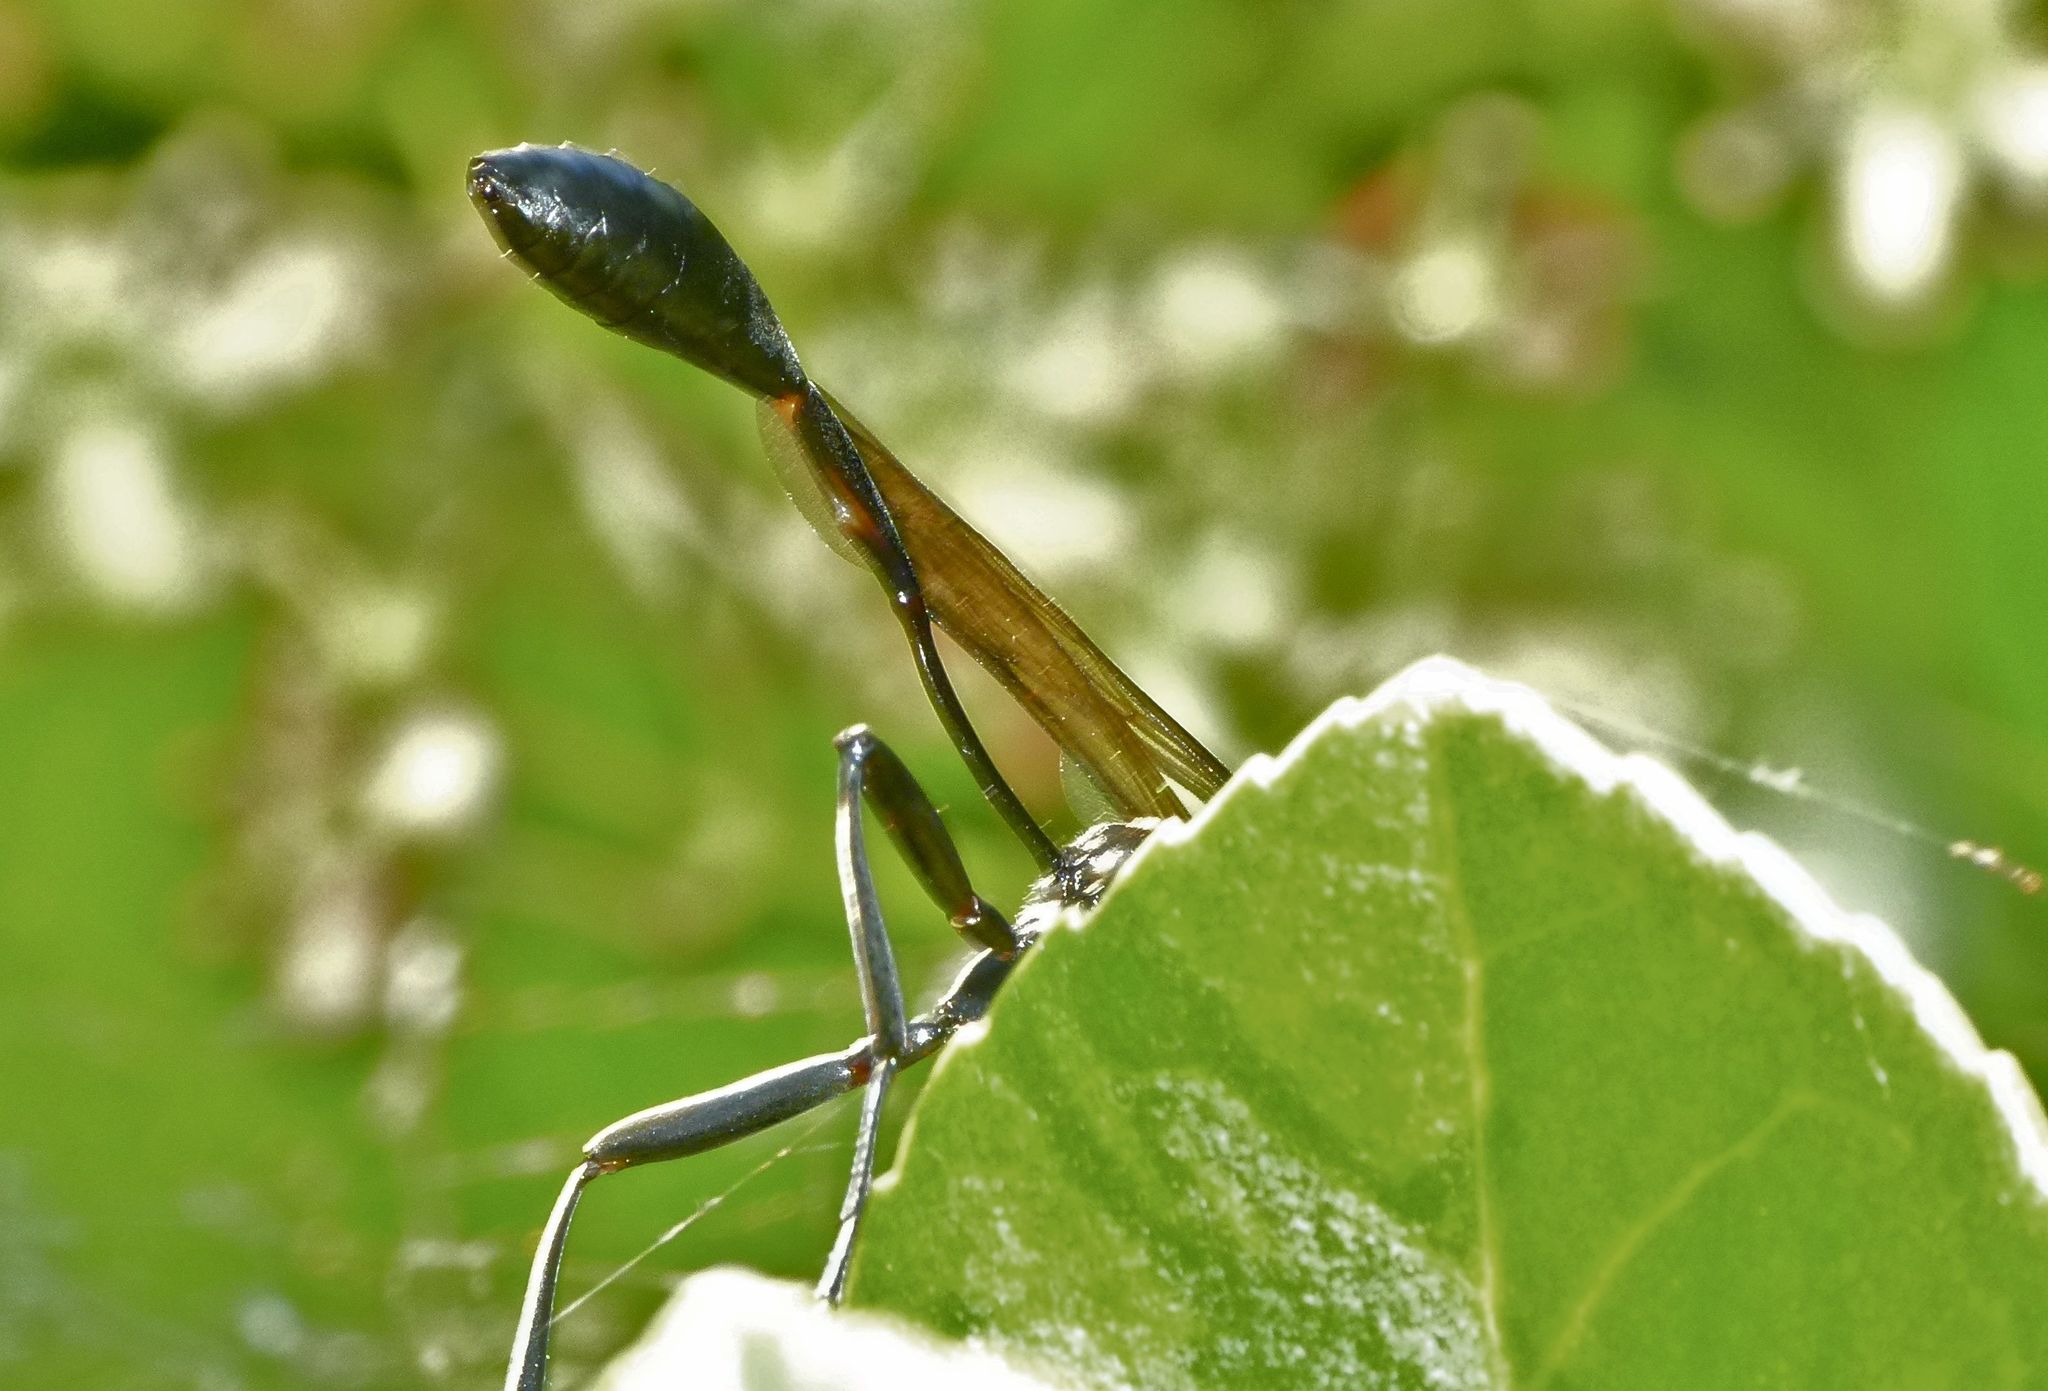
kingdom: Animalia
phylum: Arthropoda
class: Insecta
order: Hymenoptera
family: Sphecidae
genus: Eremnophila
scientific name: Eremnophila aureonotata
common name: Gold-marked thread-waisted wasp
